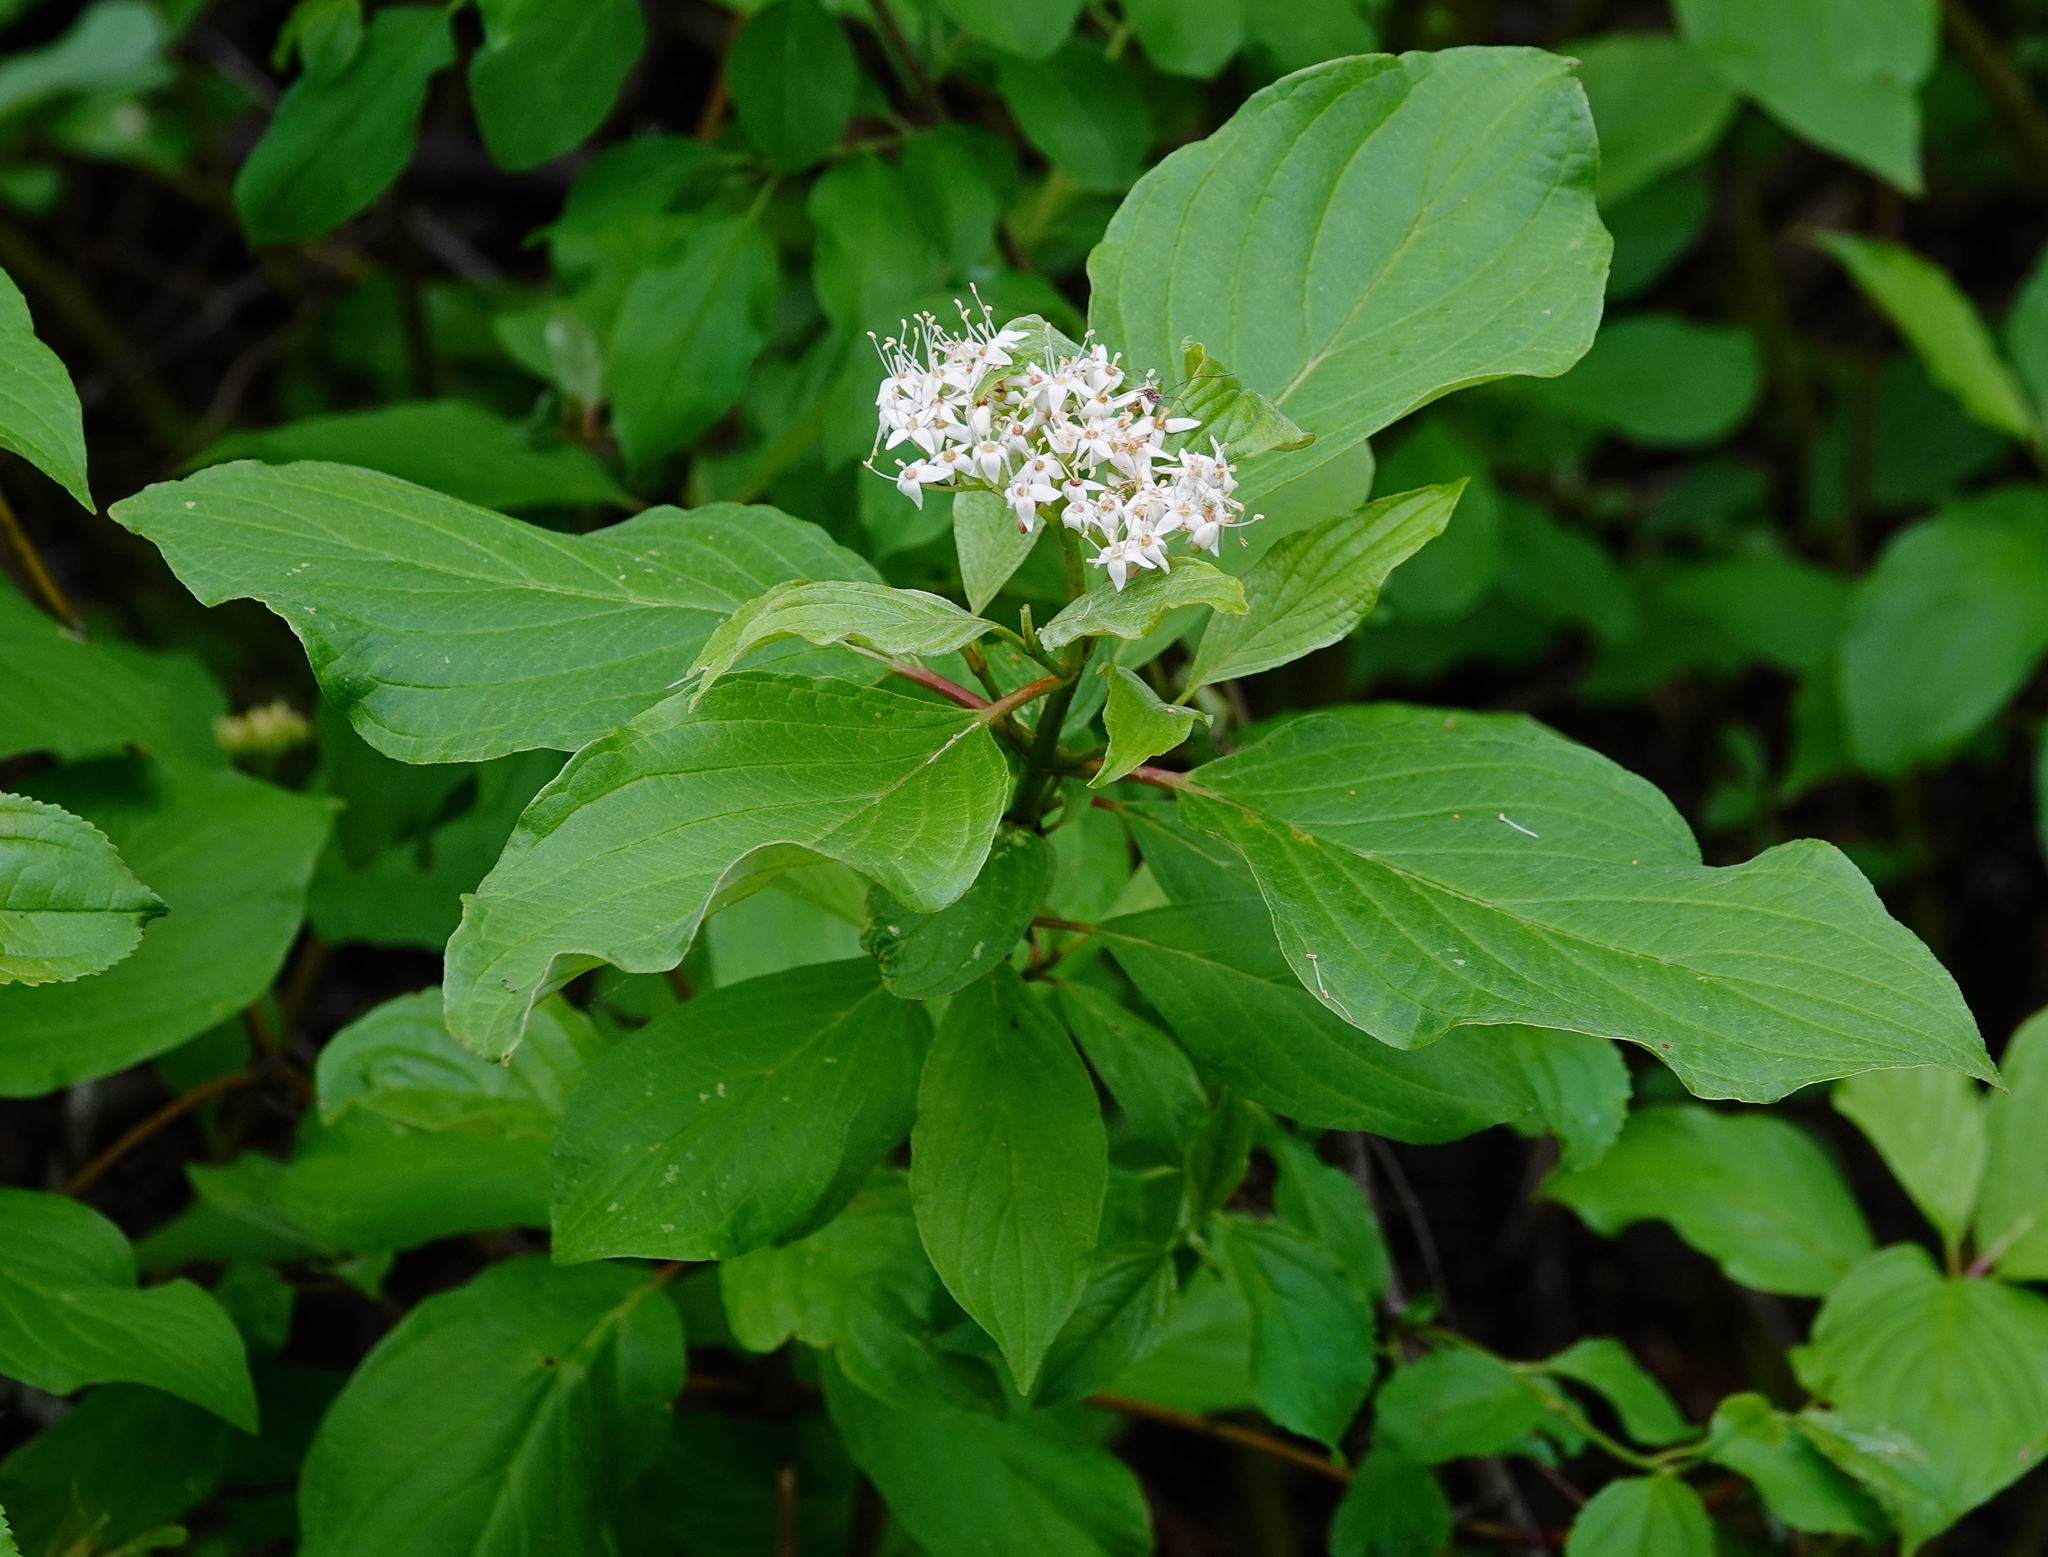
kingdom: Plantae
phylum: Tracheophyta
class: Magnoliopsida
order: Cornales
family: Cornaceae
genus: Cornus
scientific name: Cornus sericea
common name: Red-osier dogwood
